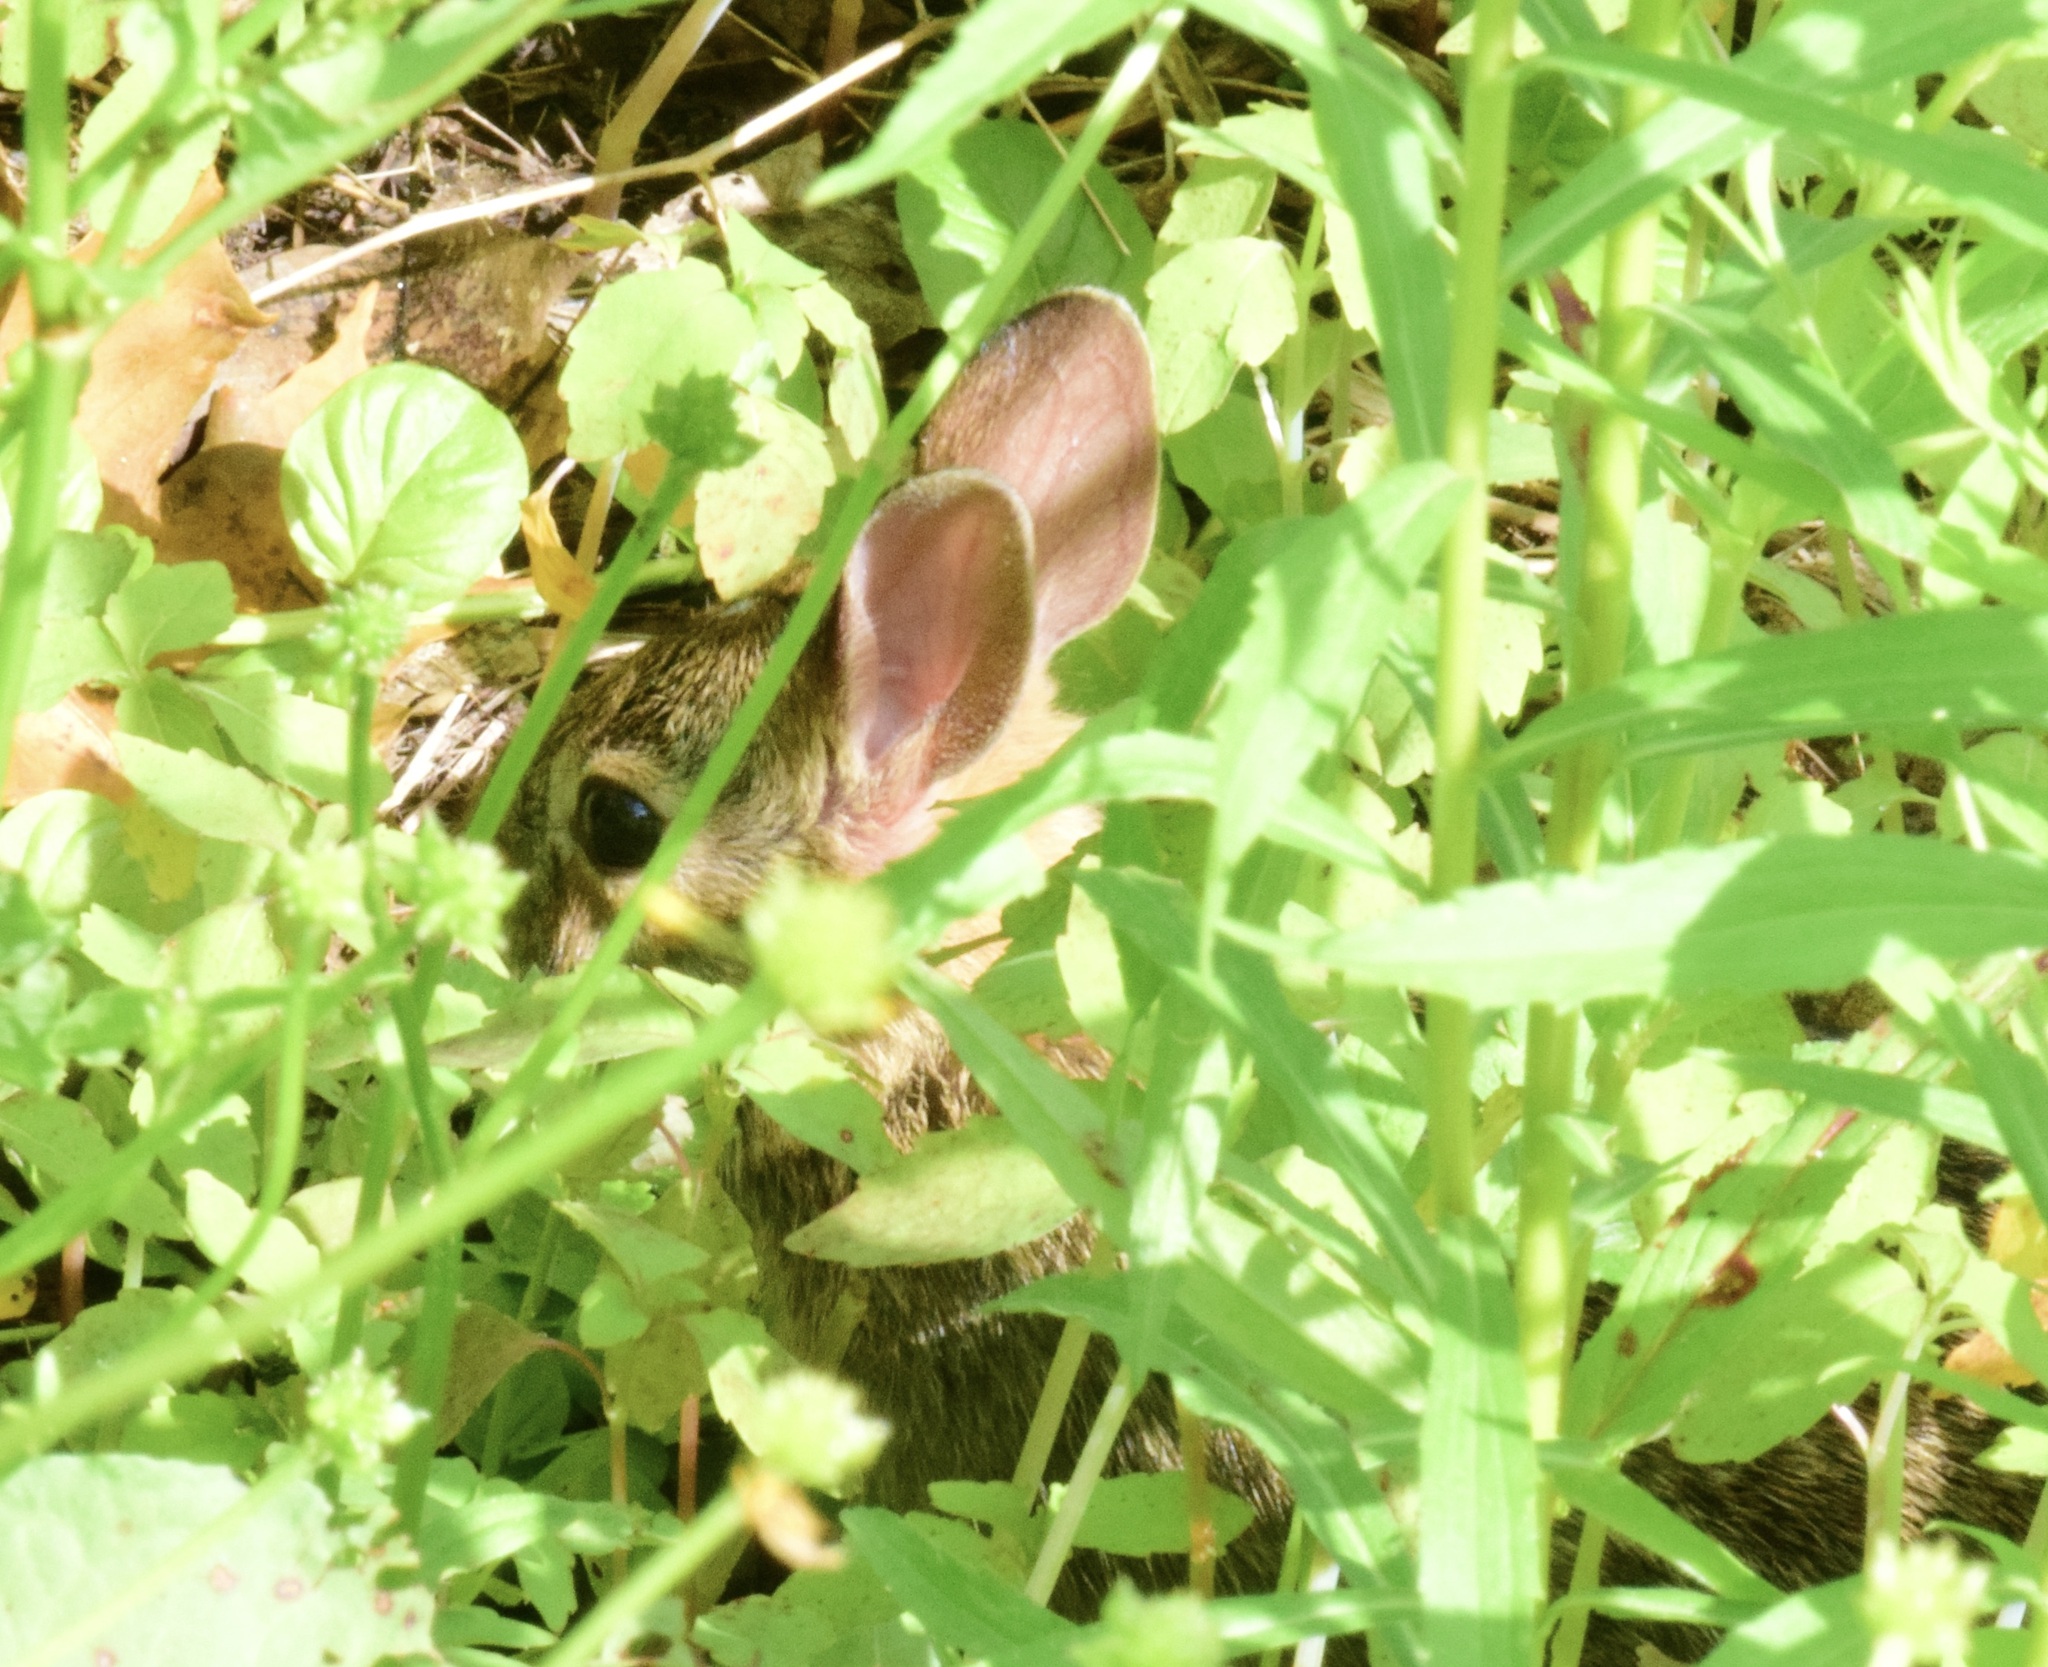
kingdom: Animalia
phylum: Chordata
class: Mammalia
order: Lagomorpha
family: Leporidae
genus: Sylvilagus
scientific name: Sylvilagus floridanus
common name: Eastern cottontail
